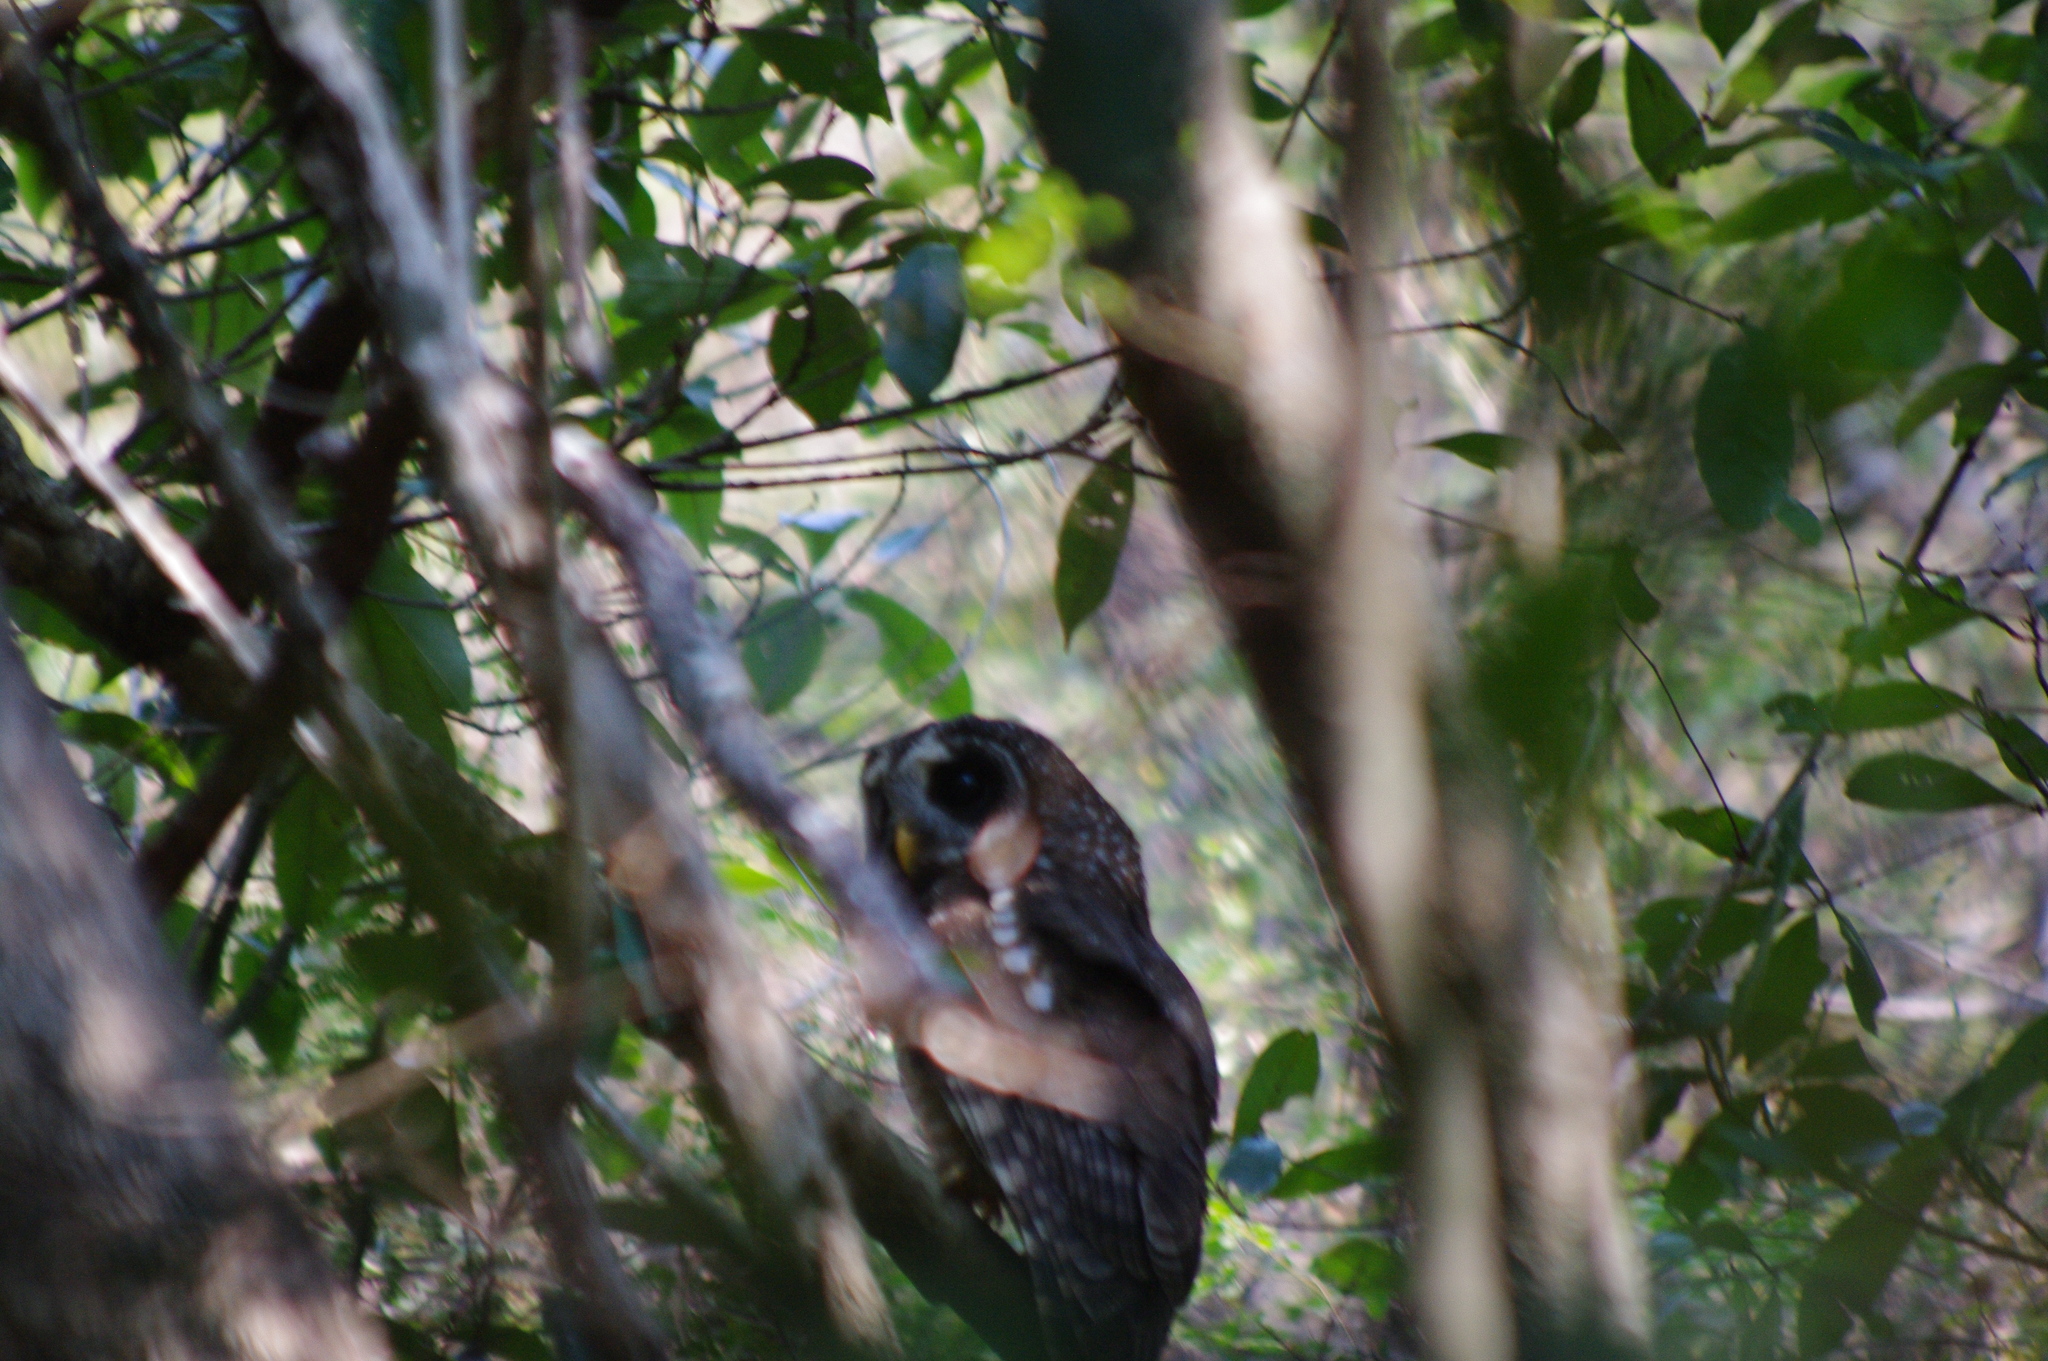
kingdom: Animalia
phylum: Chordata
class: Aves
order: Strigiformes
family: Strigidae
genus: Strix
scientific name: Strix woodfordii
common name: African wood owl
